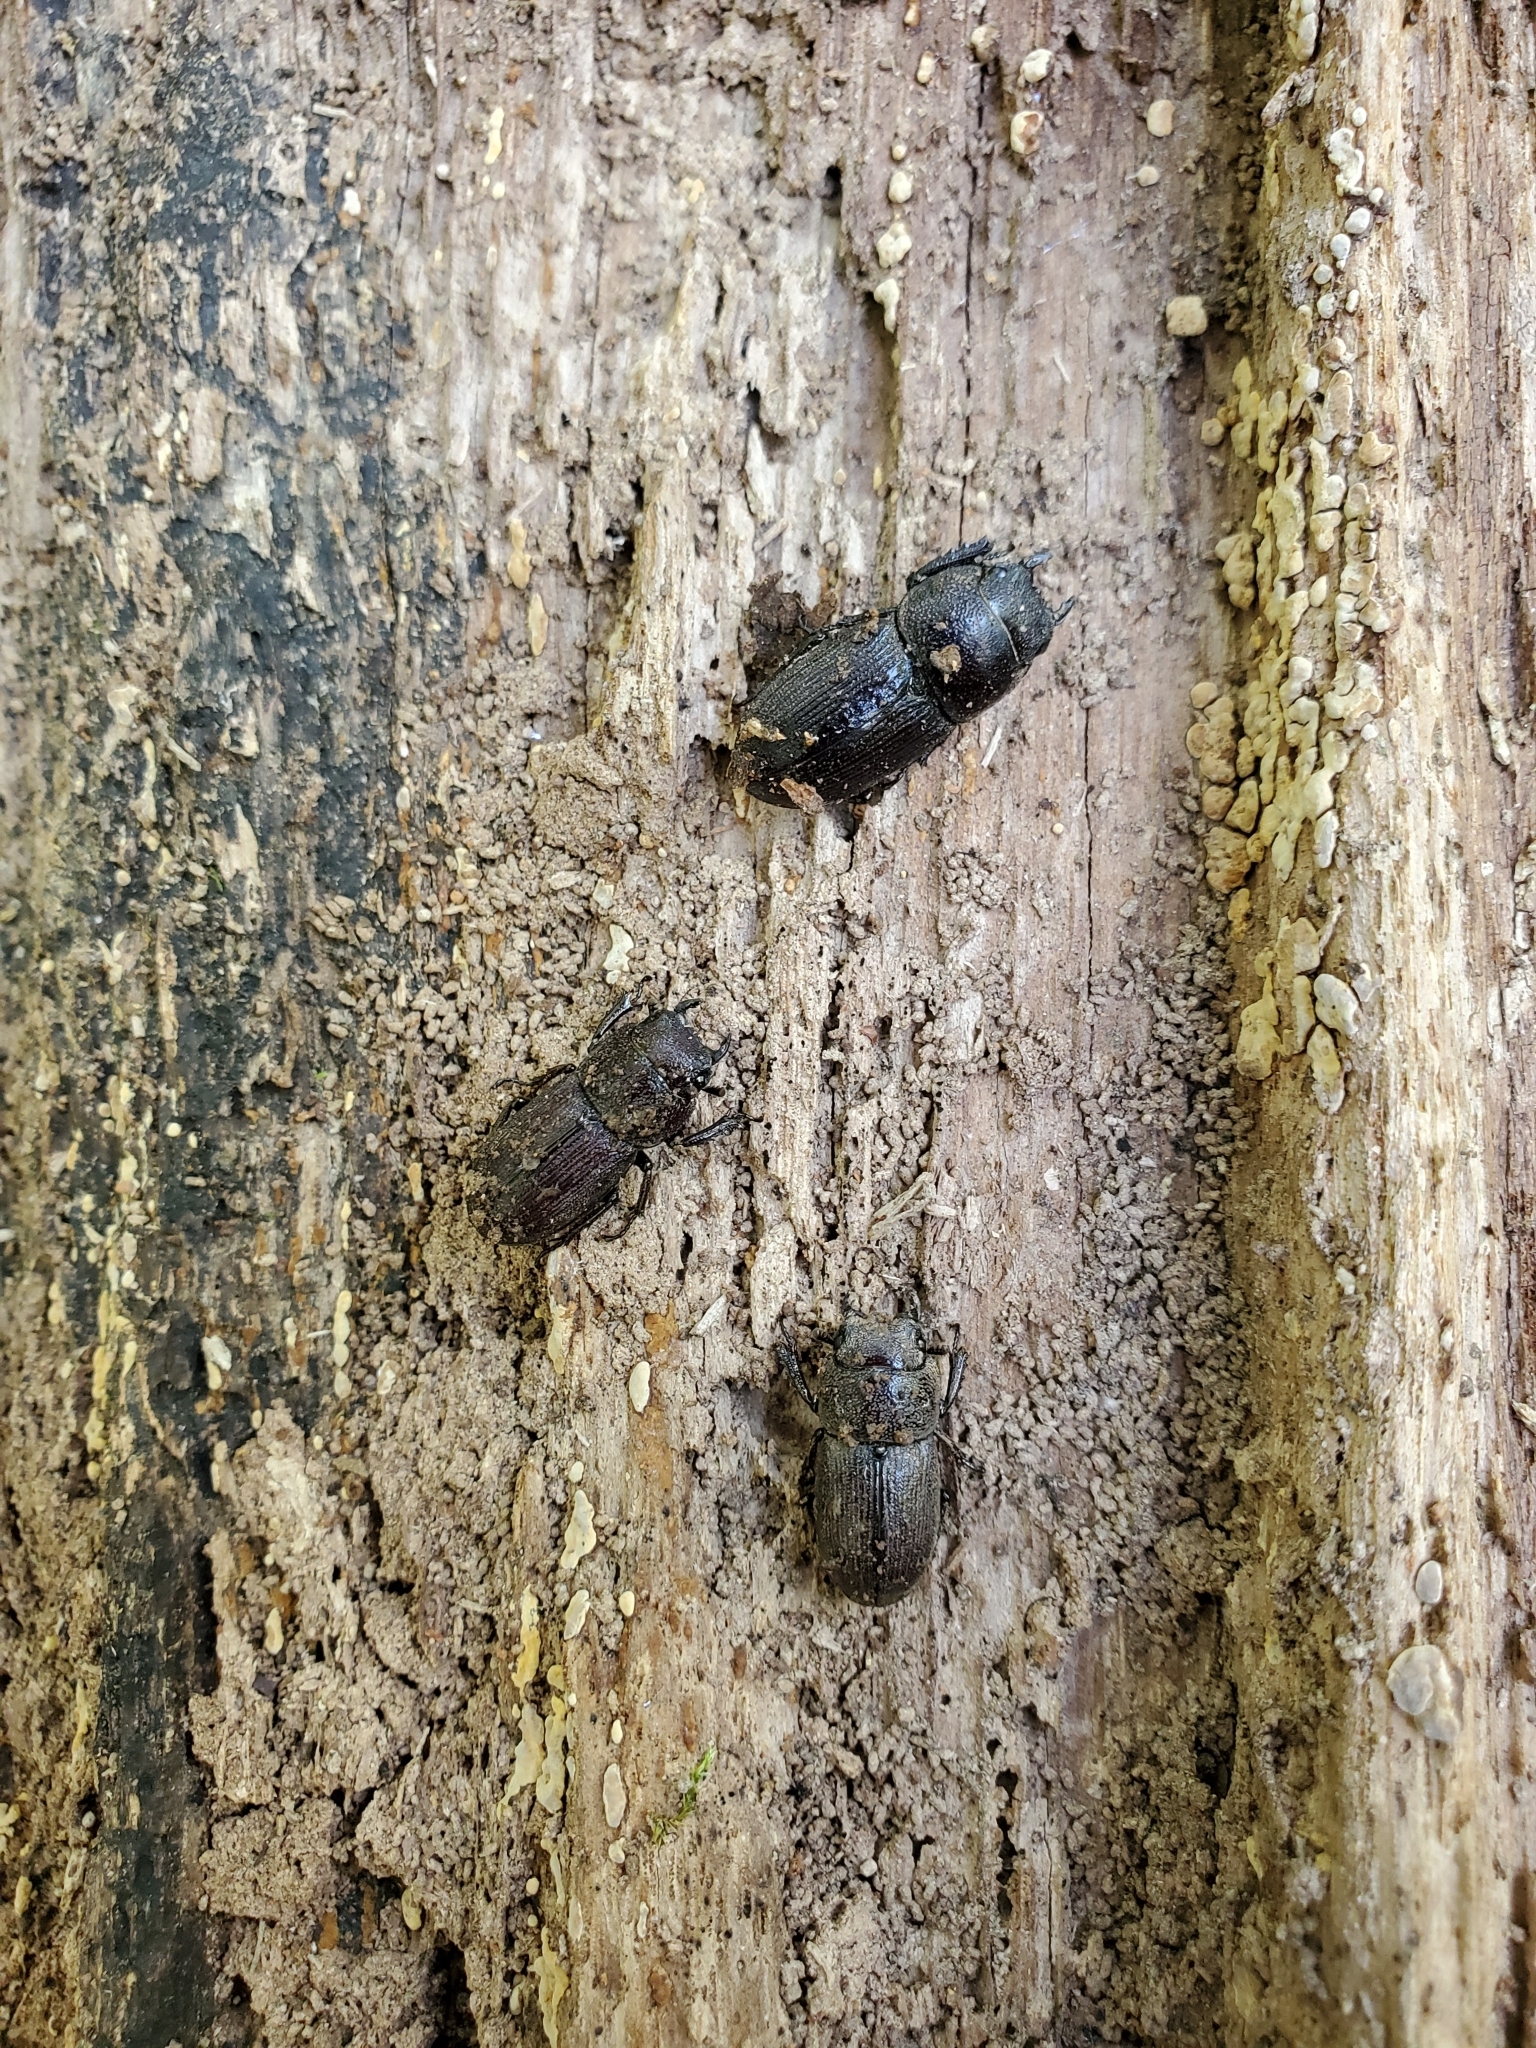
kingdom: Animalia
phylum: Arthropoda
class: Insecta
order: Coleoptera
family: Lucanidae
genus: Dorcus
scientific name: Dorcus brevis
